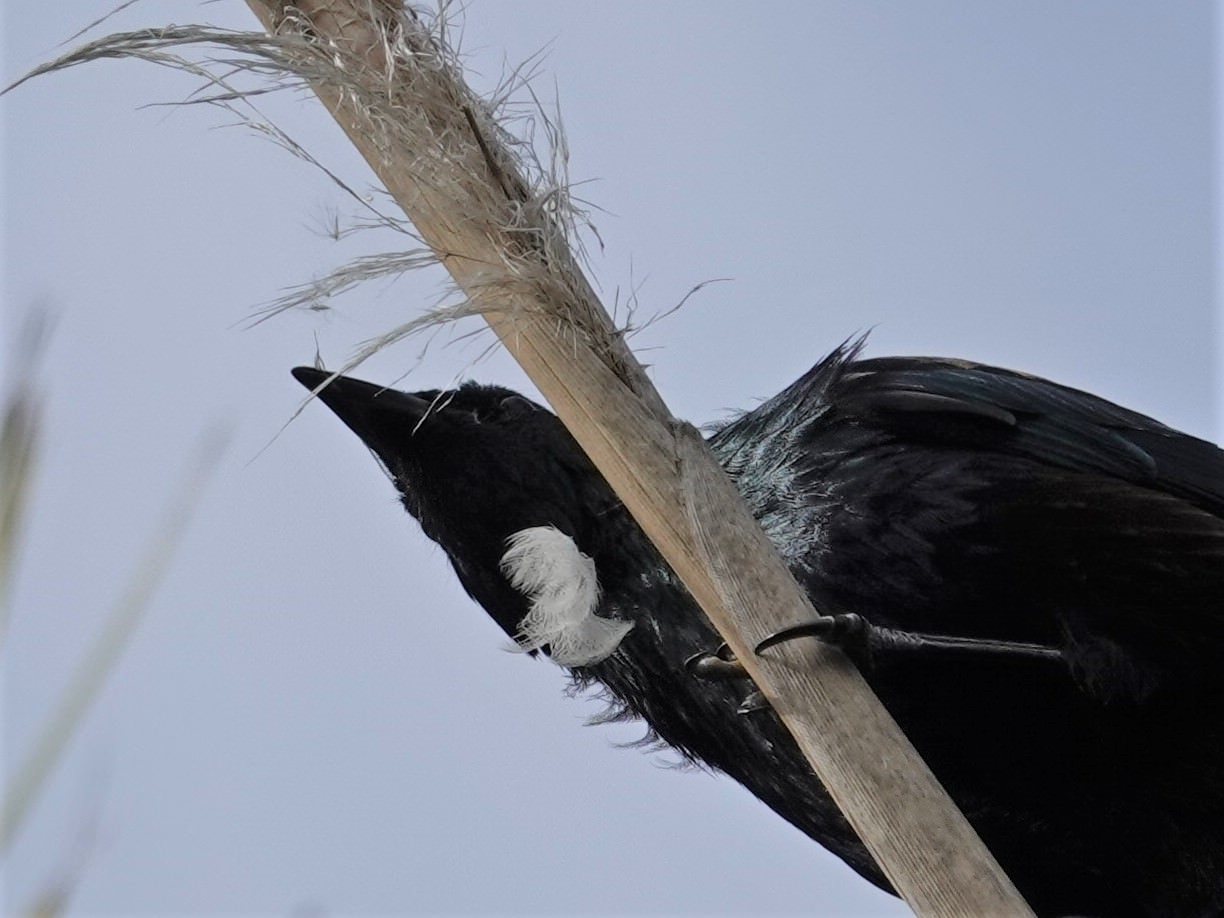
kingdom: Animalia
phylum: Chordata
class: Aves
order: Passeriformes
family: Meliphagidae
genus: Prosthemadera
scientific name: Prosthemadera novaeseelandiae
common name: Tui
